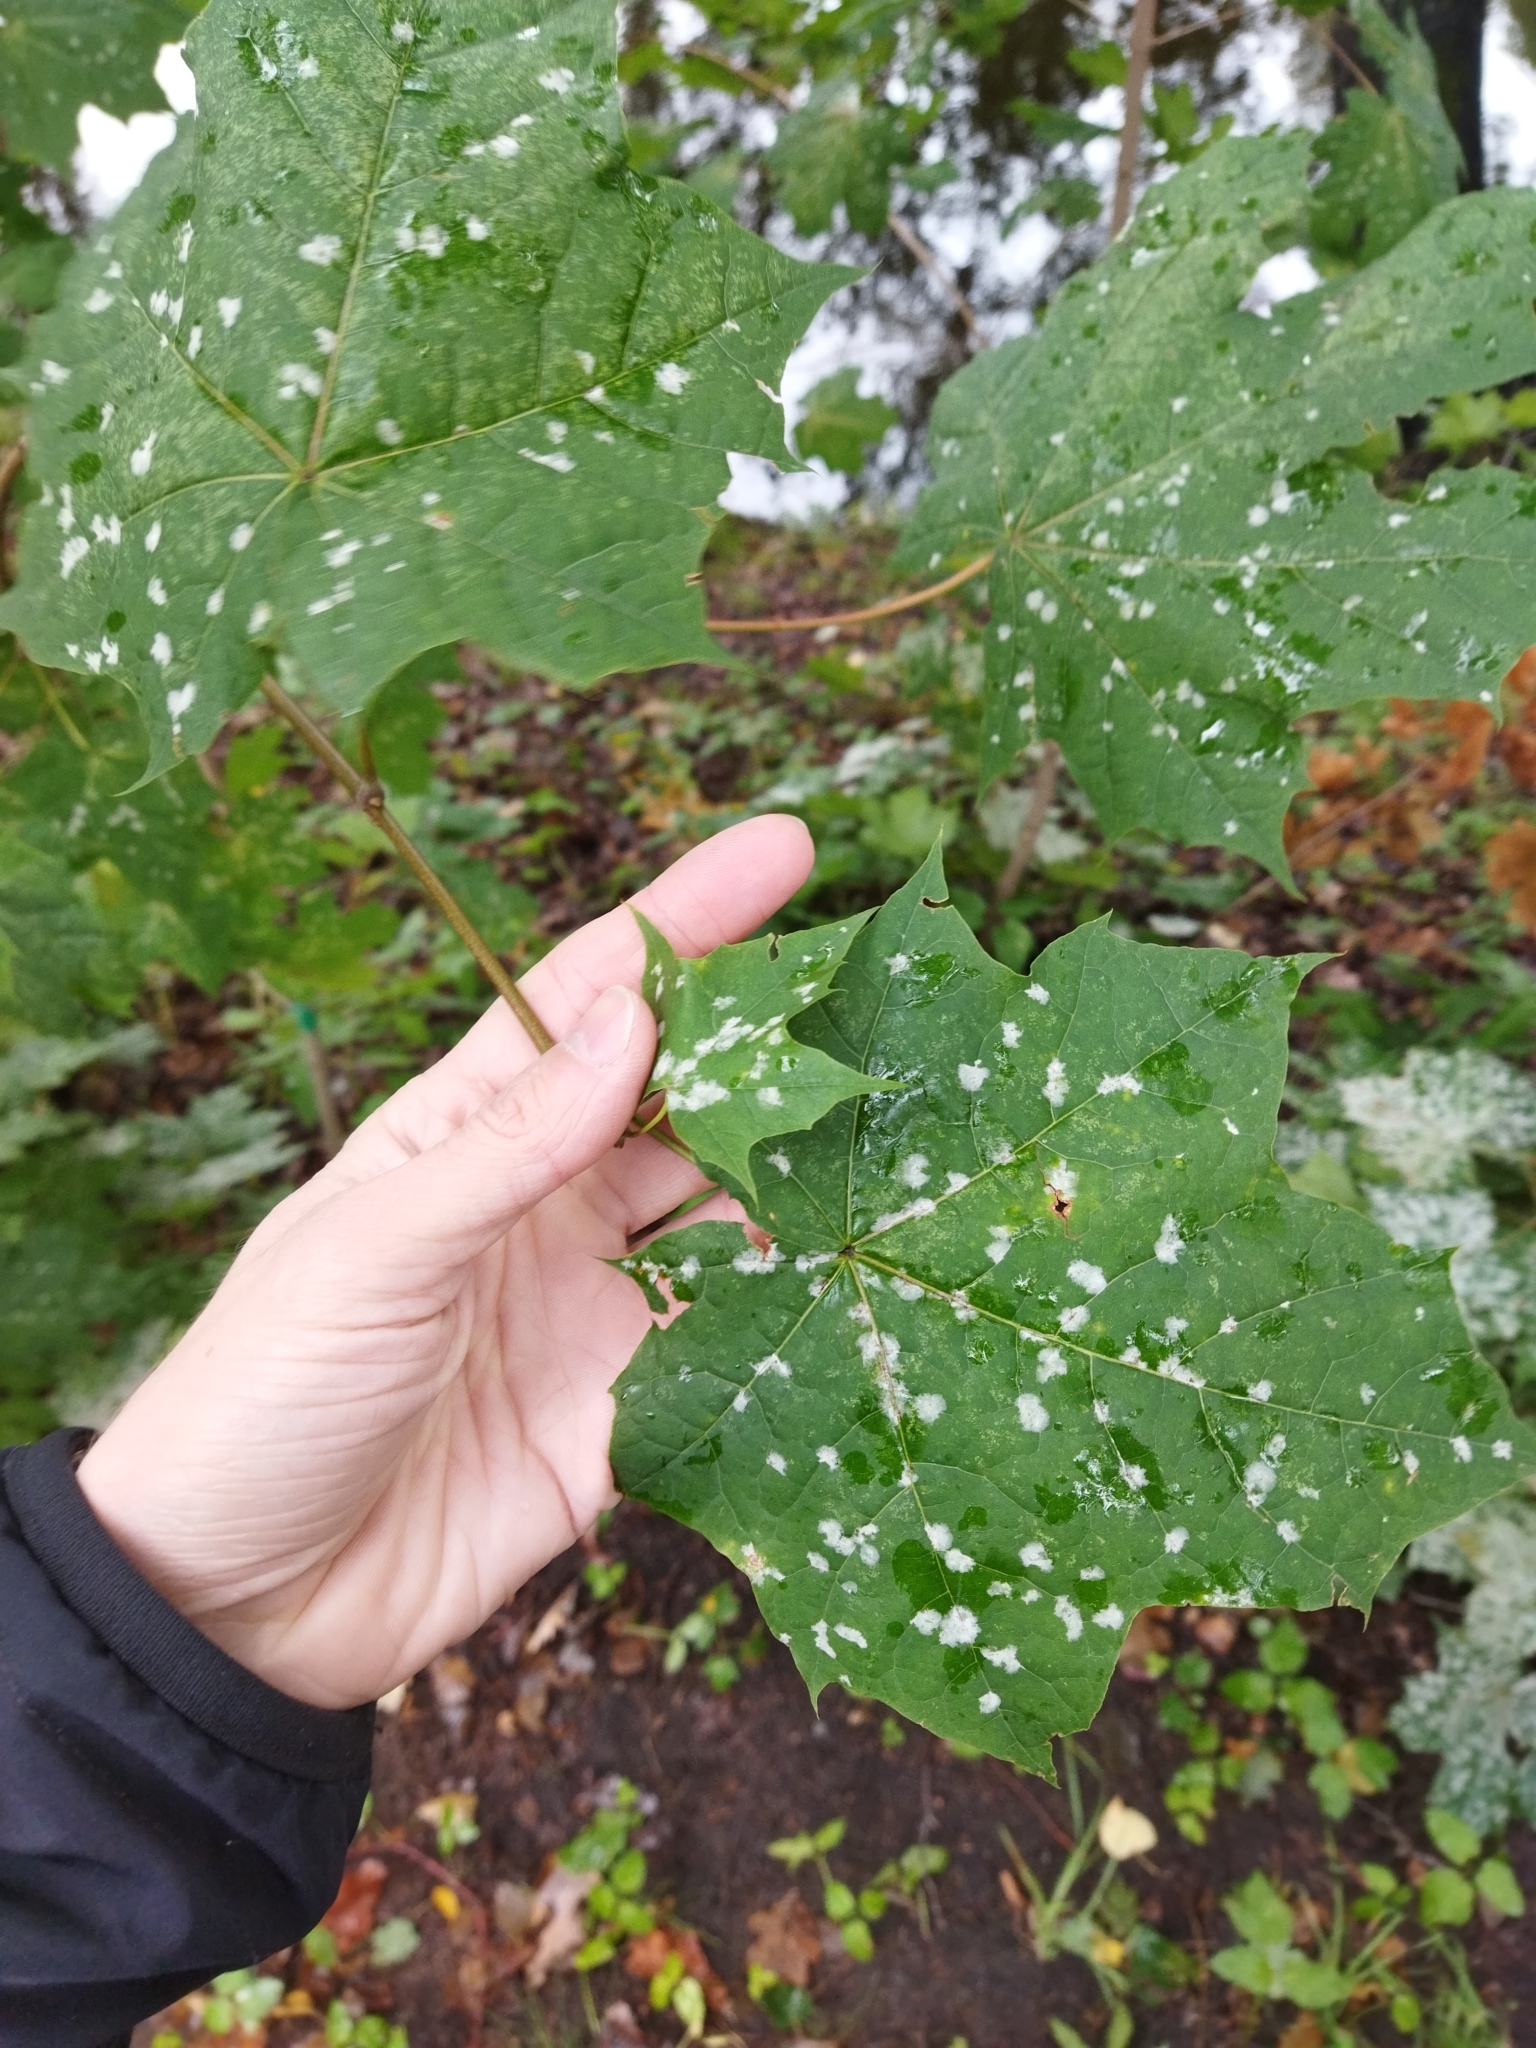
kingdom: Fungi
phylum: Ascomycota
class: Leotiomycetes
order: Helotiales
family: Erysiphaceae
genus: Sawadaea
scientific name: Sawadaea tulasnei
